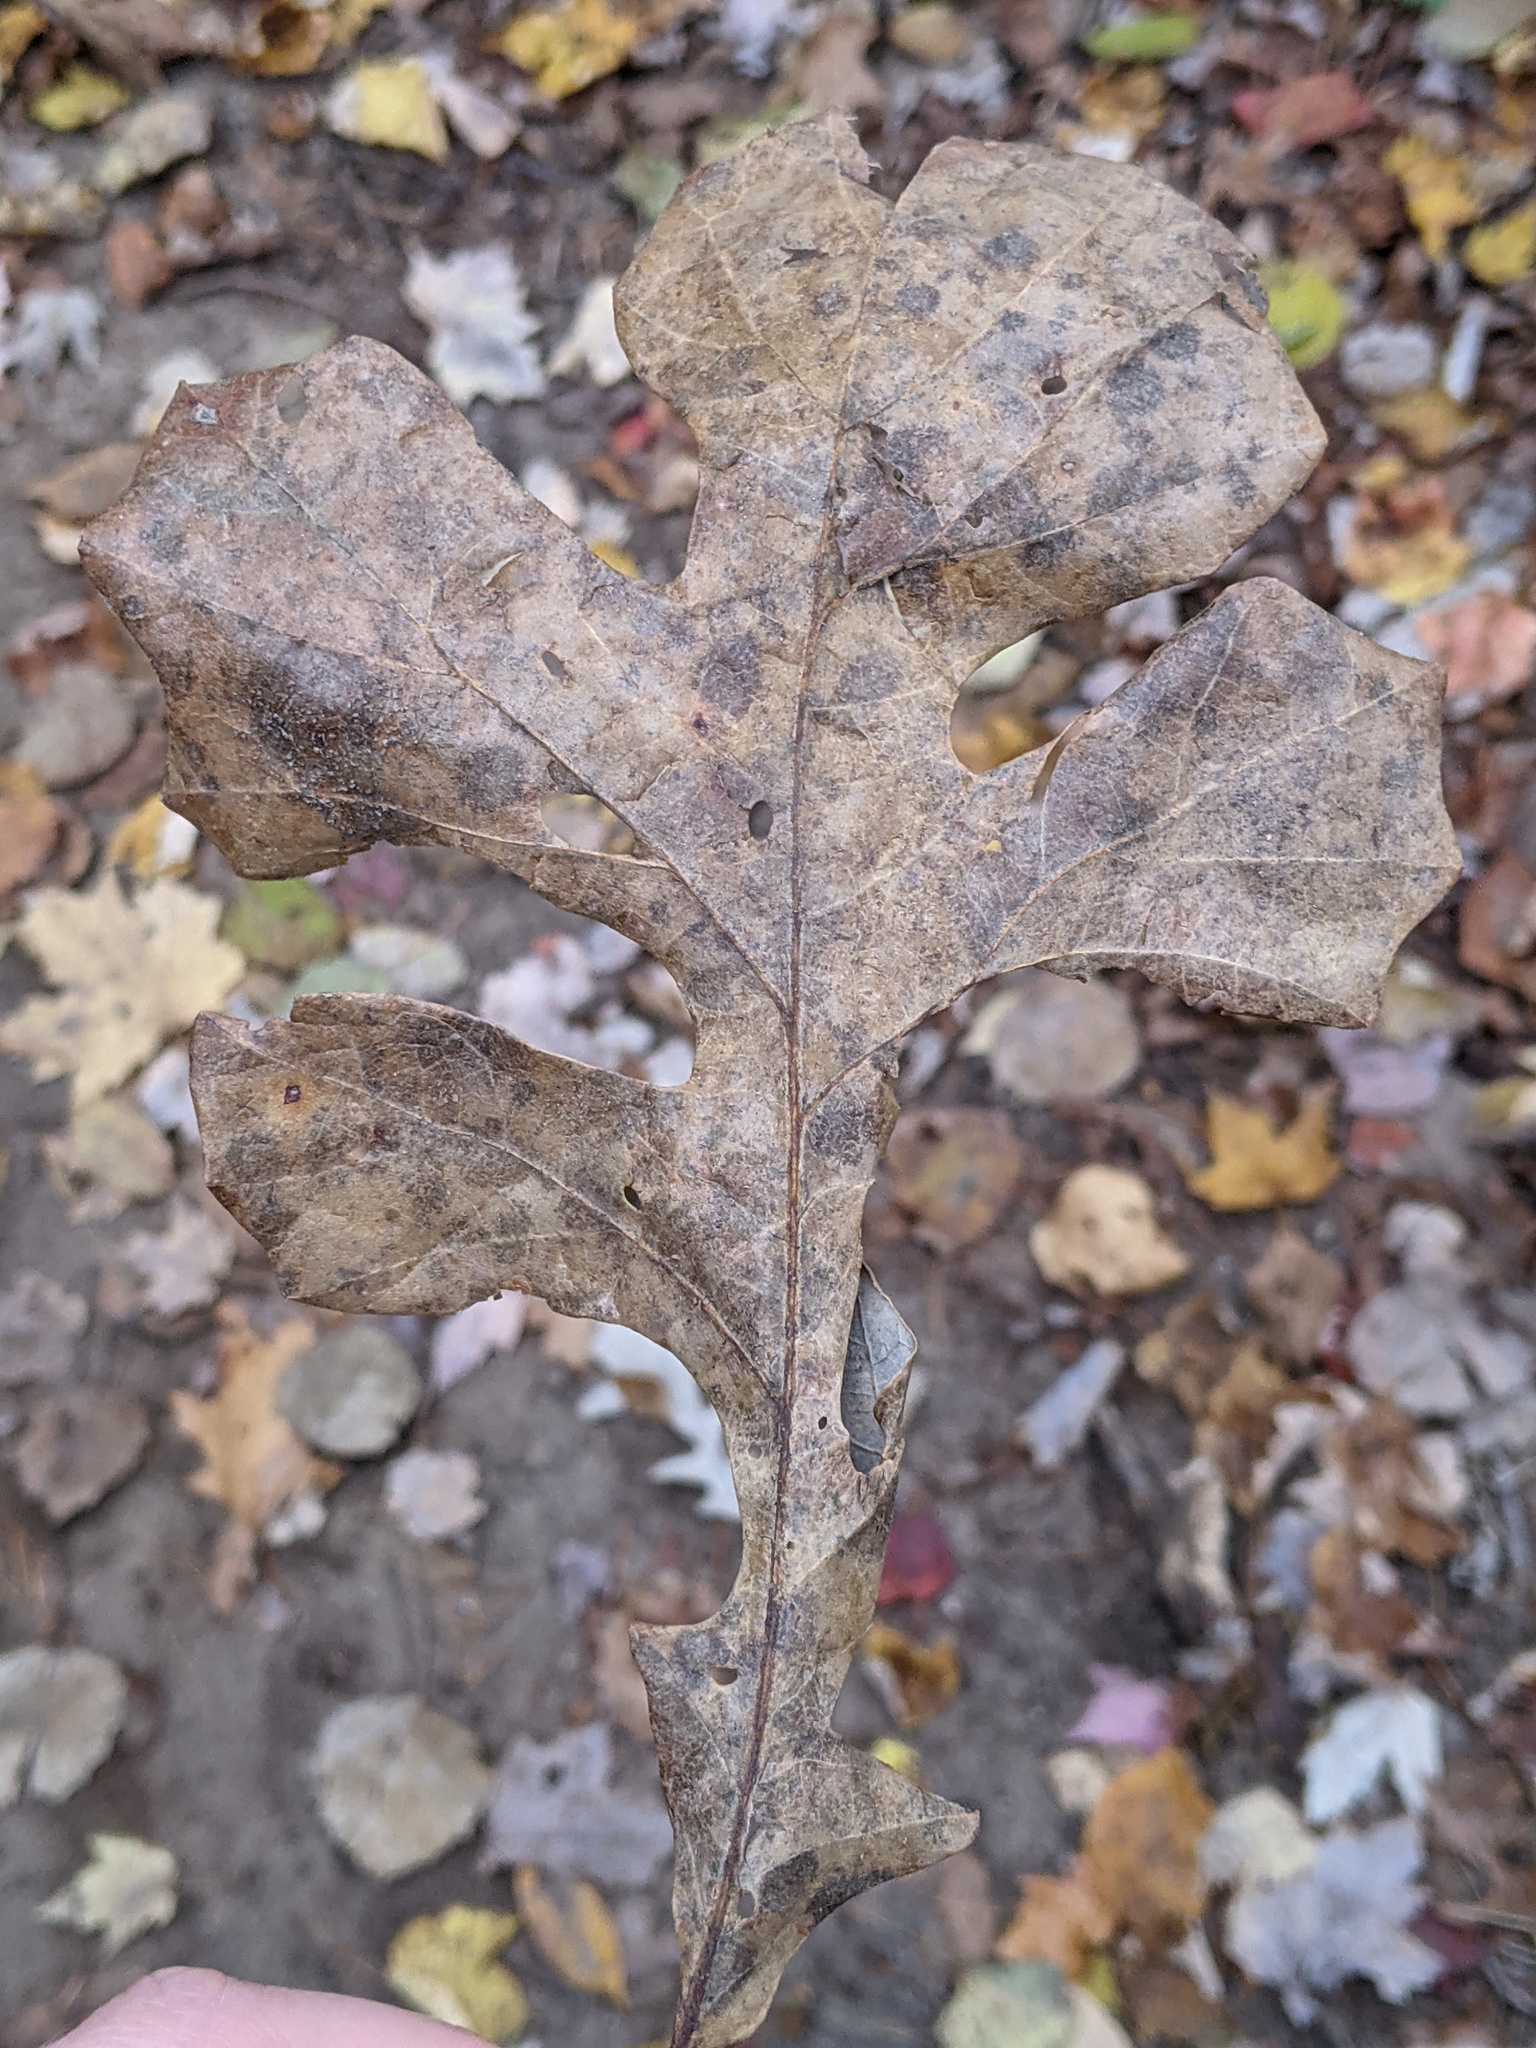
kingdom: Plantae
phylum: Tracheophyta
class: Magnoliopsida
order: Fagales
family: Fagaceae
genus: Quercus
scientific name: Quercus macrocarpa
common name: Bur oak
